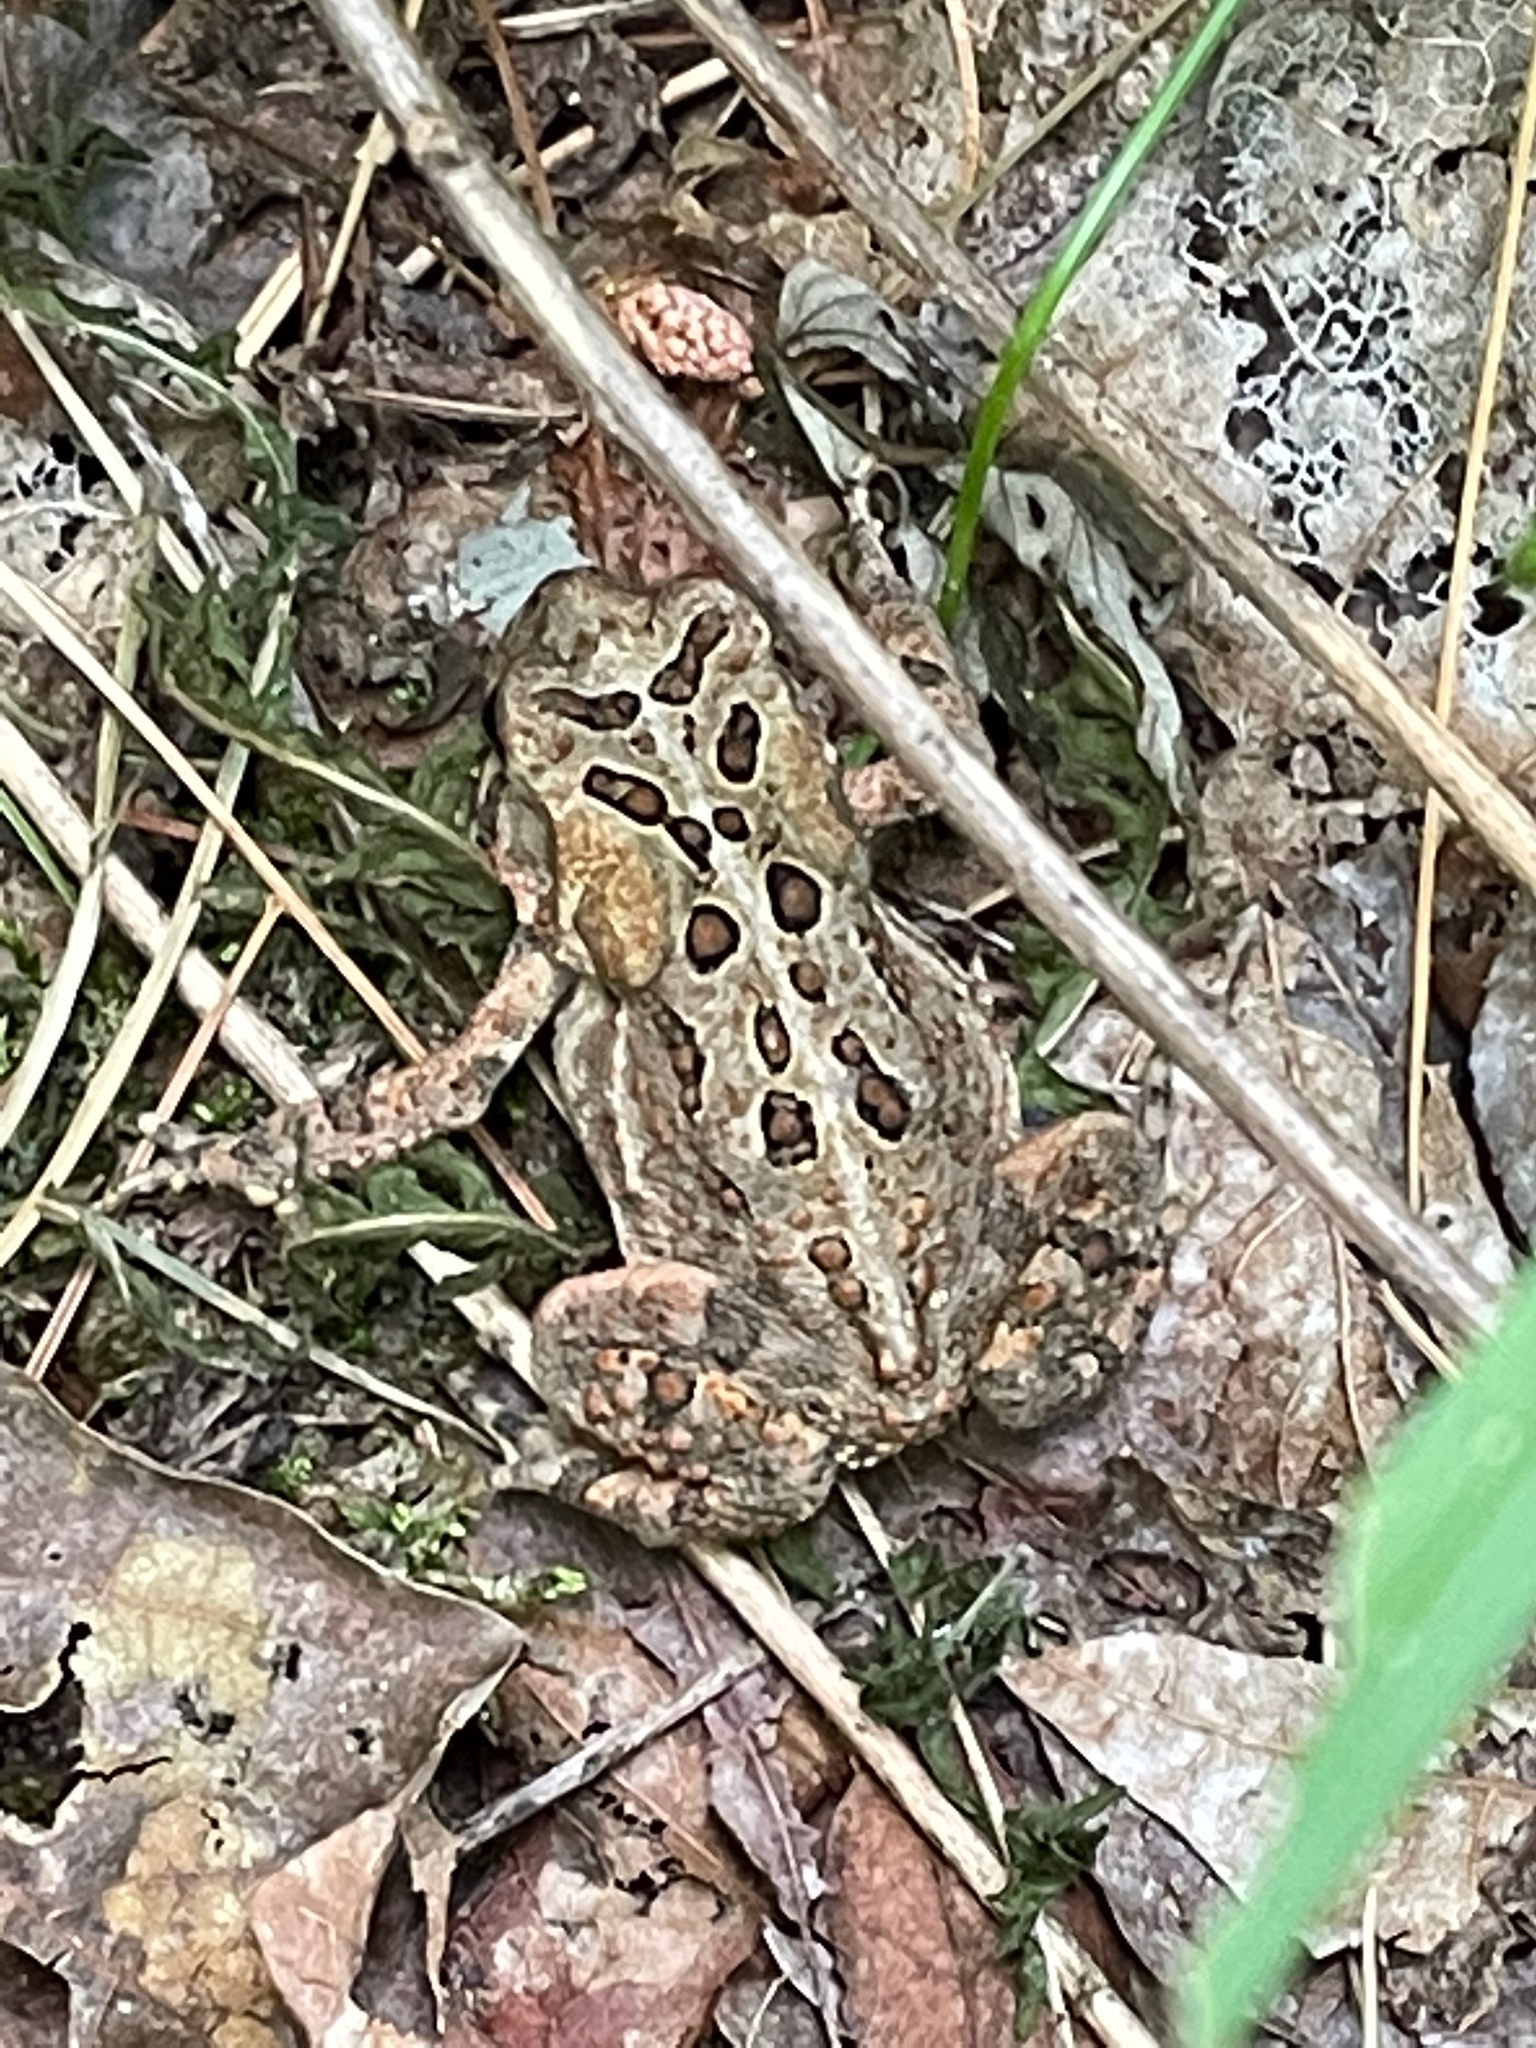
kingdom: Animalia
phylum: Chordata
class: Amphibia
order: Anura
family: Bufonidae
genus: Anaxyrus
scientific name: Anaxyrus americanus
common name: American toad
